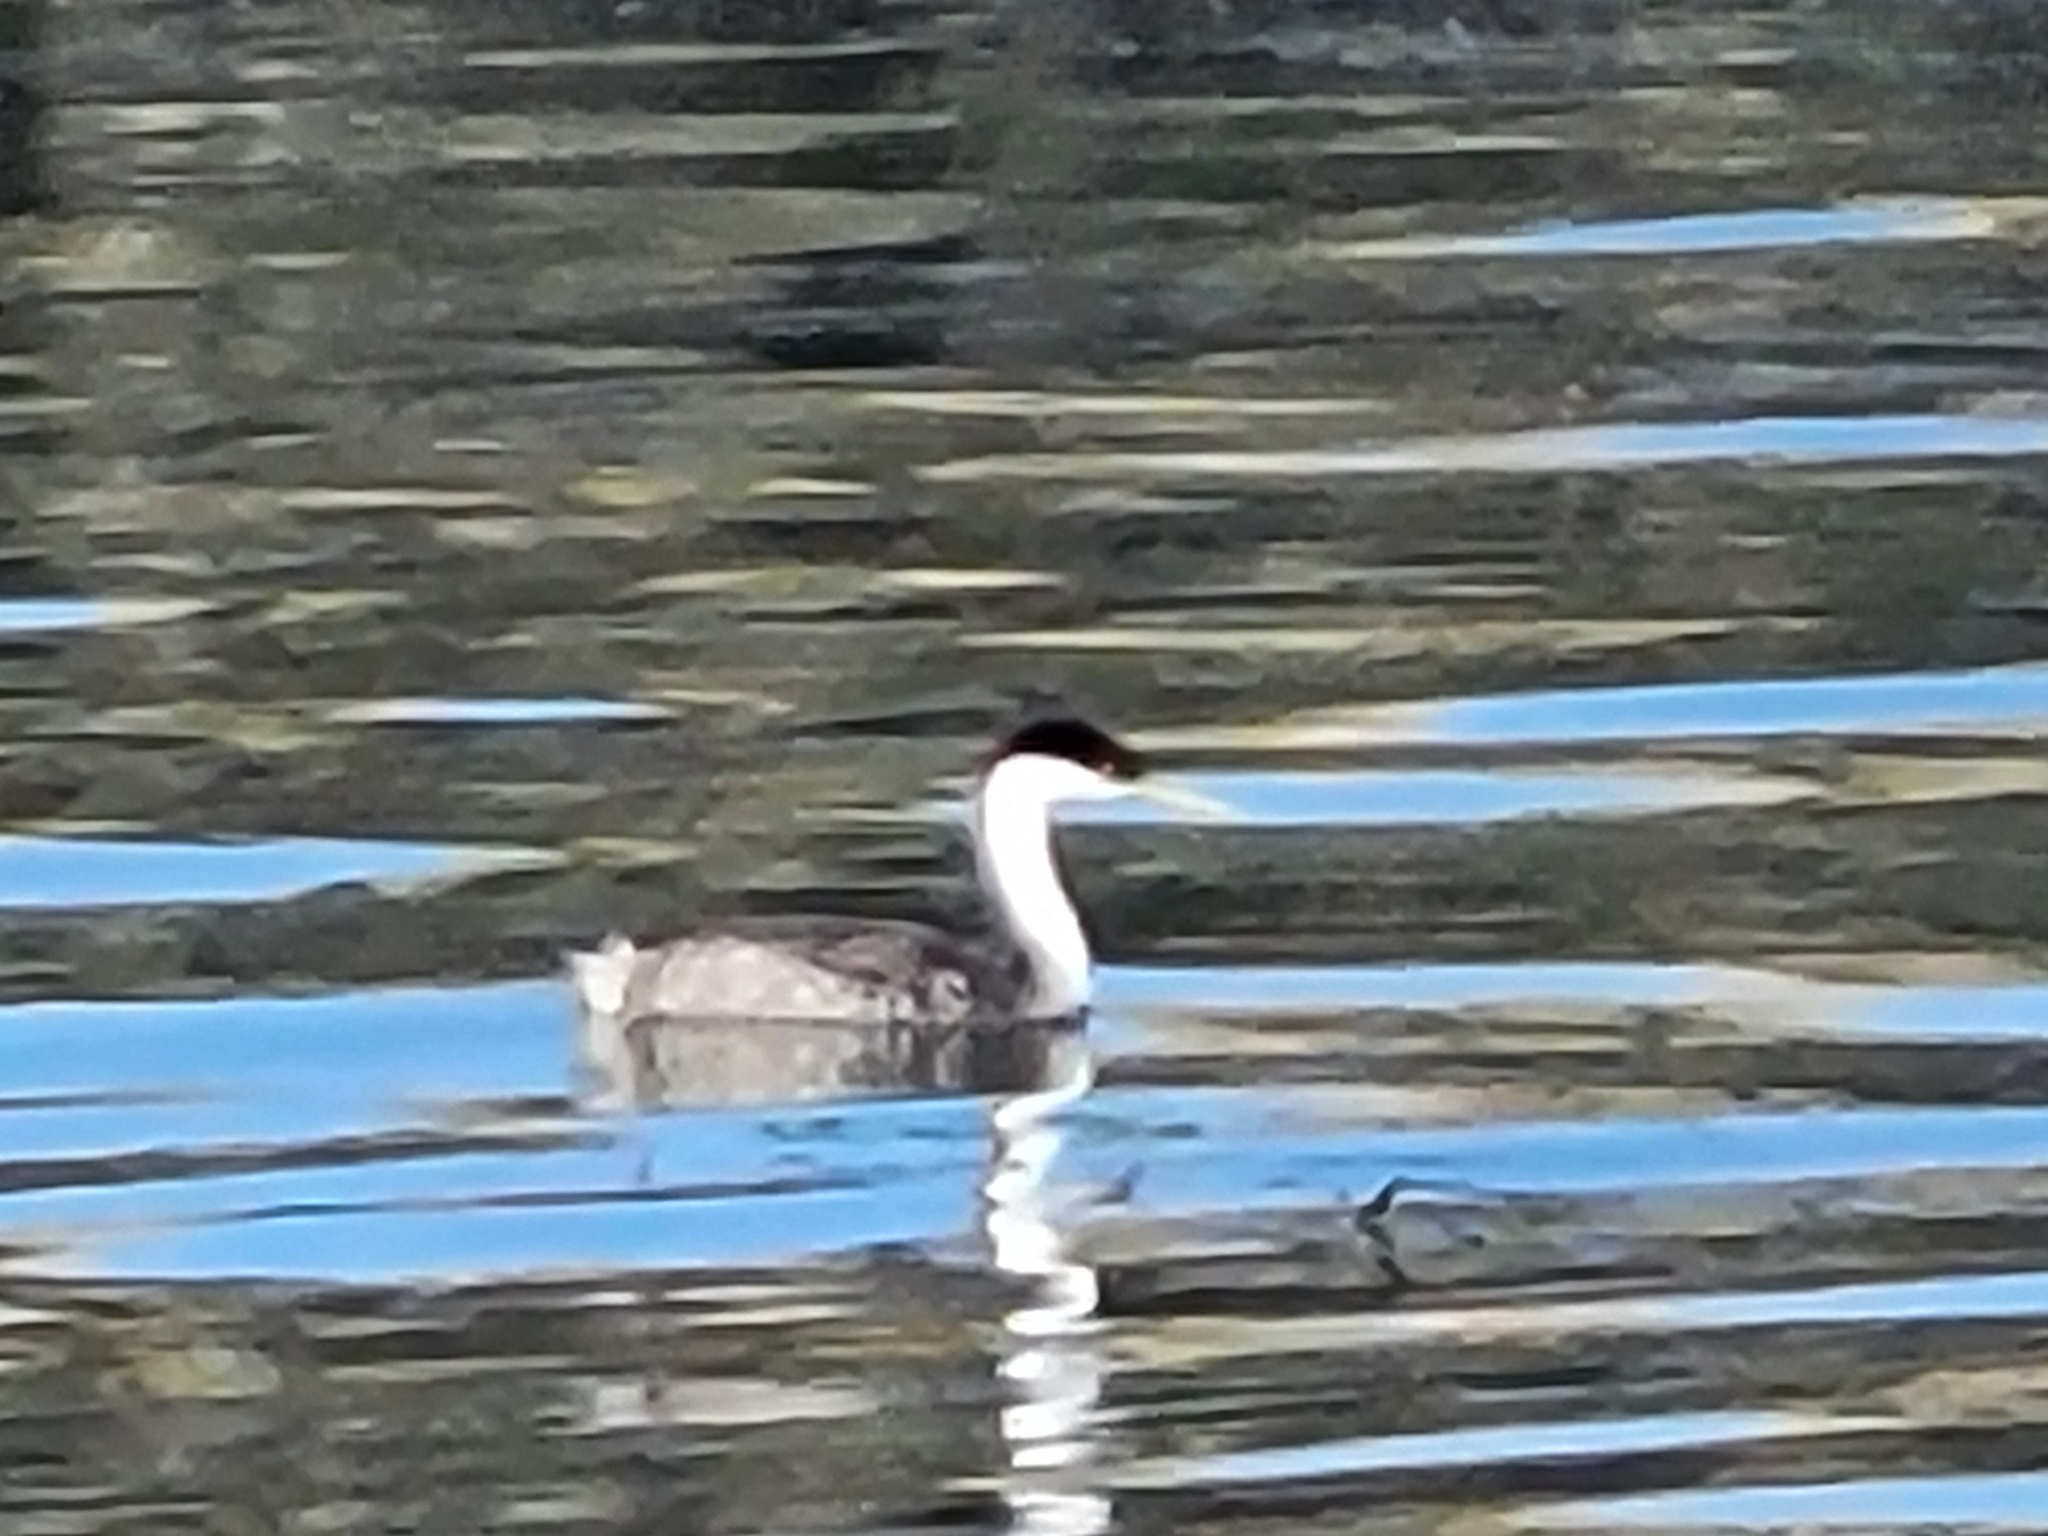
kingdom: Animalia
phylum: Chordata
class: Aves
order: Podicipediformes
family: Podicipedidae
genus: Aechmophorus
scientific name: Aechmophorus occidentalis
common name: Western grebe
